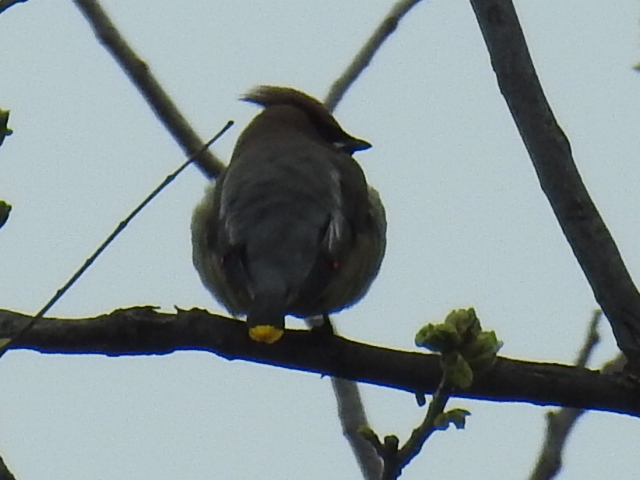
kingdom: Animalia
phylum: Chordata
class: Aves
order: Passeriformes
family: Bombycillidae
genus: Bombycilla
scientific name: Bombycilla cedrorum
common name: Cedar waxwing
